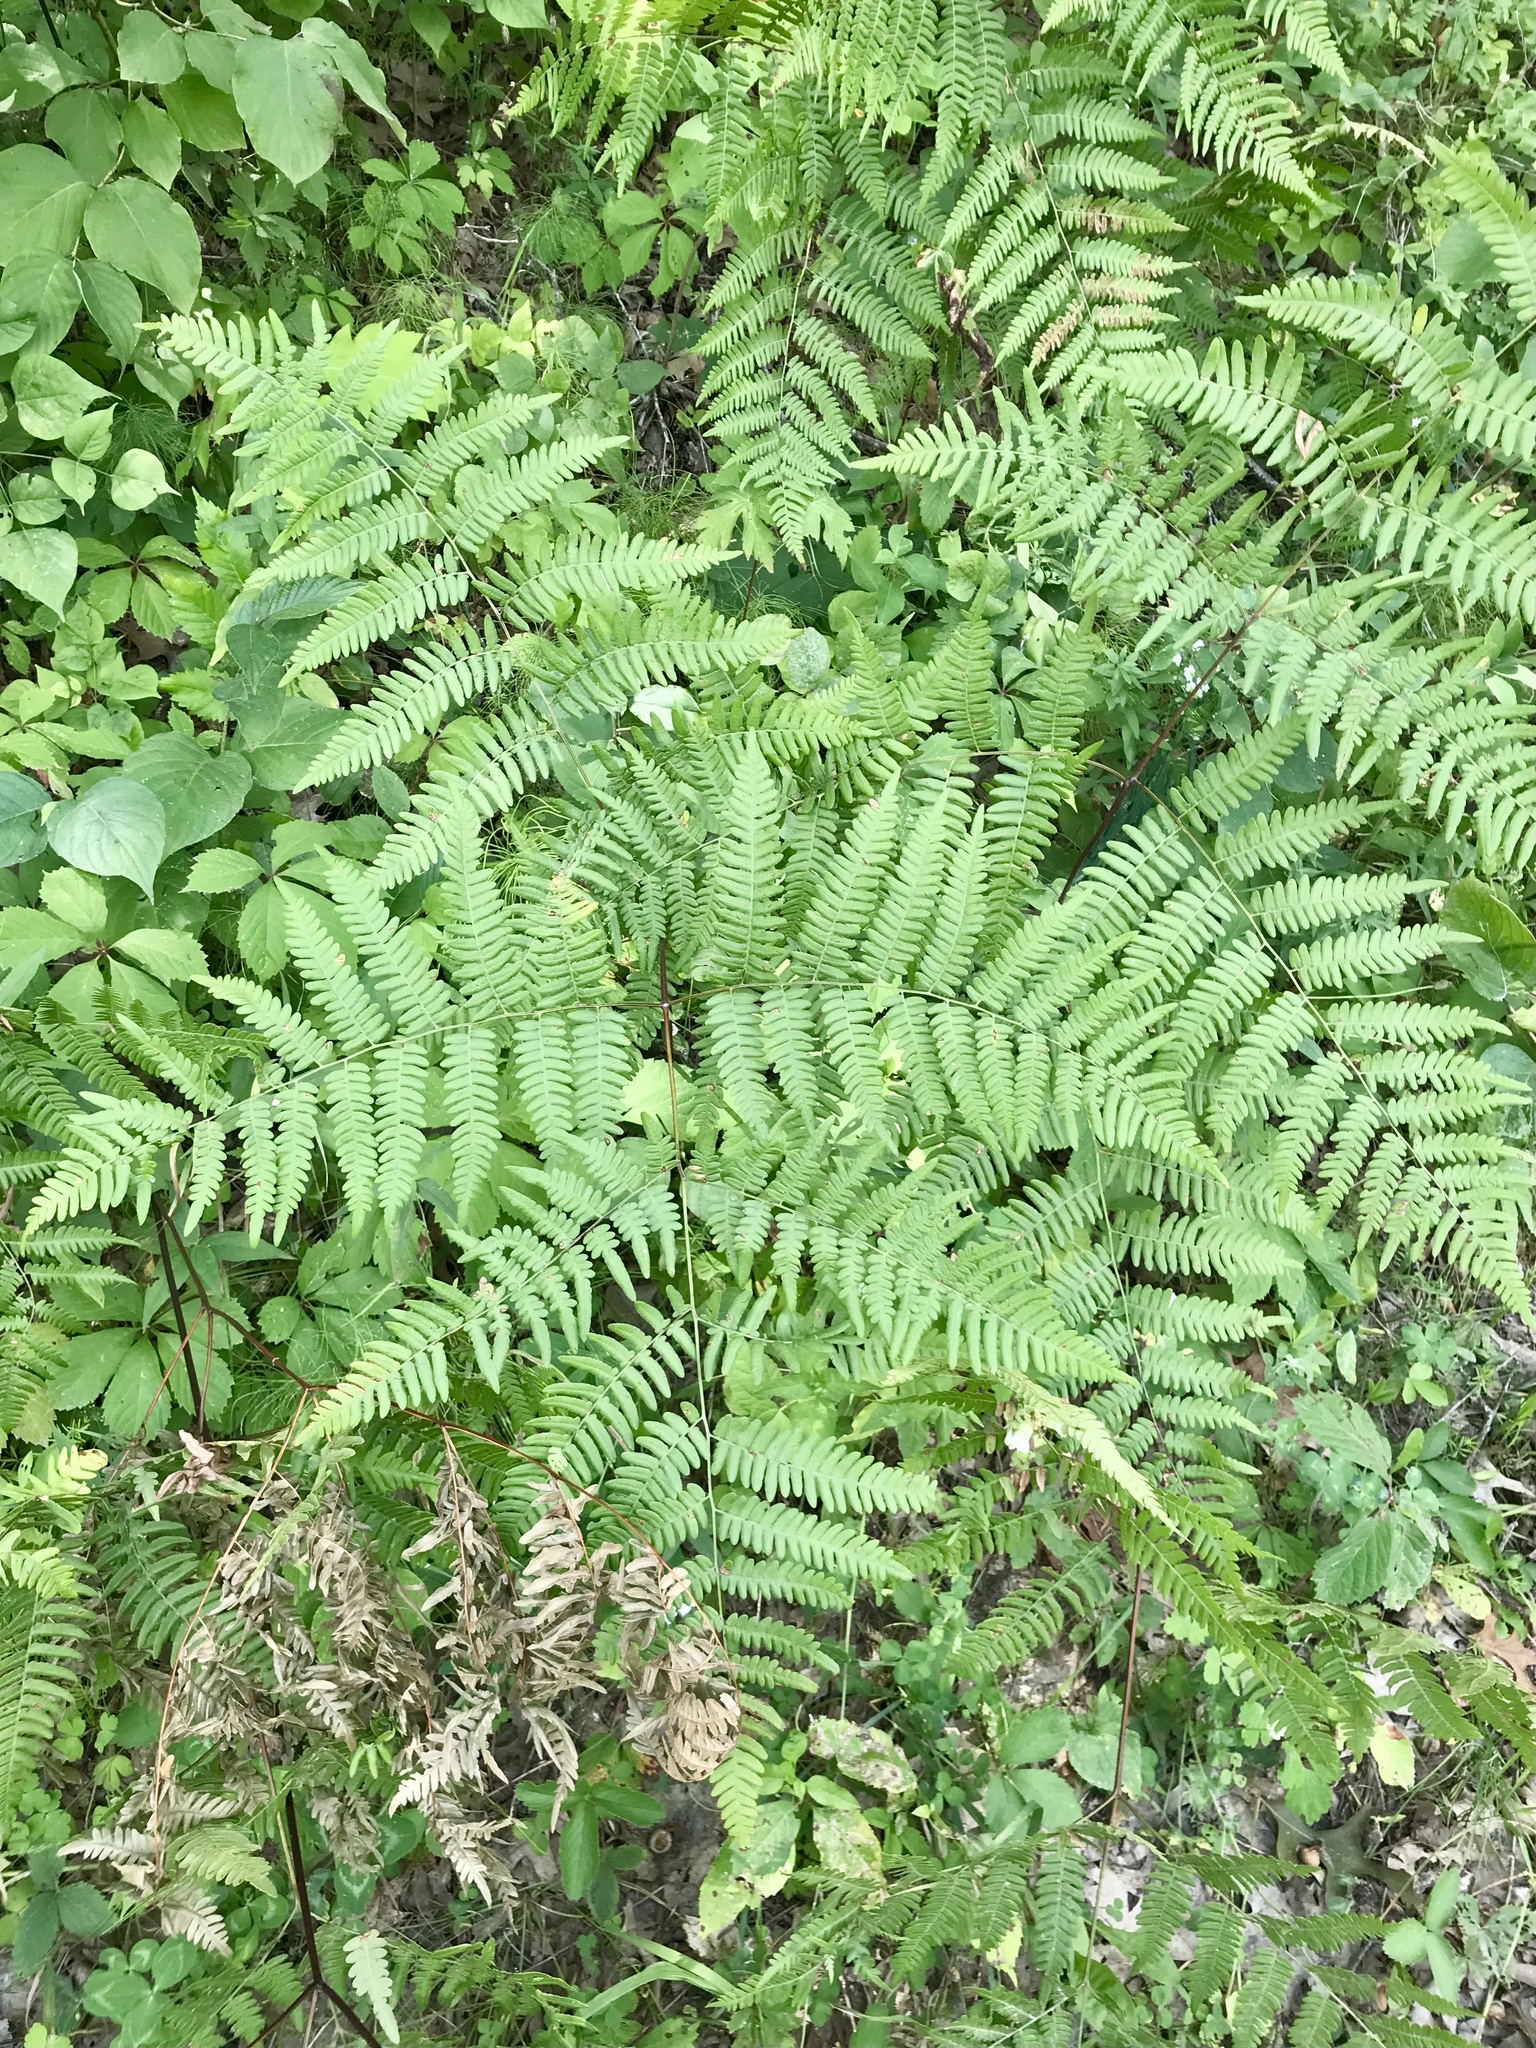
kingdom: Plantae
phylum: Tracheophyta
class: Polypodiopsida
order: Polypodiales
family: Dennstaedtiaceae
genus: Pteridium
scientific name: Pteridium aquilinum
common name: Bracken
